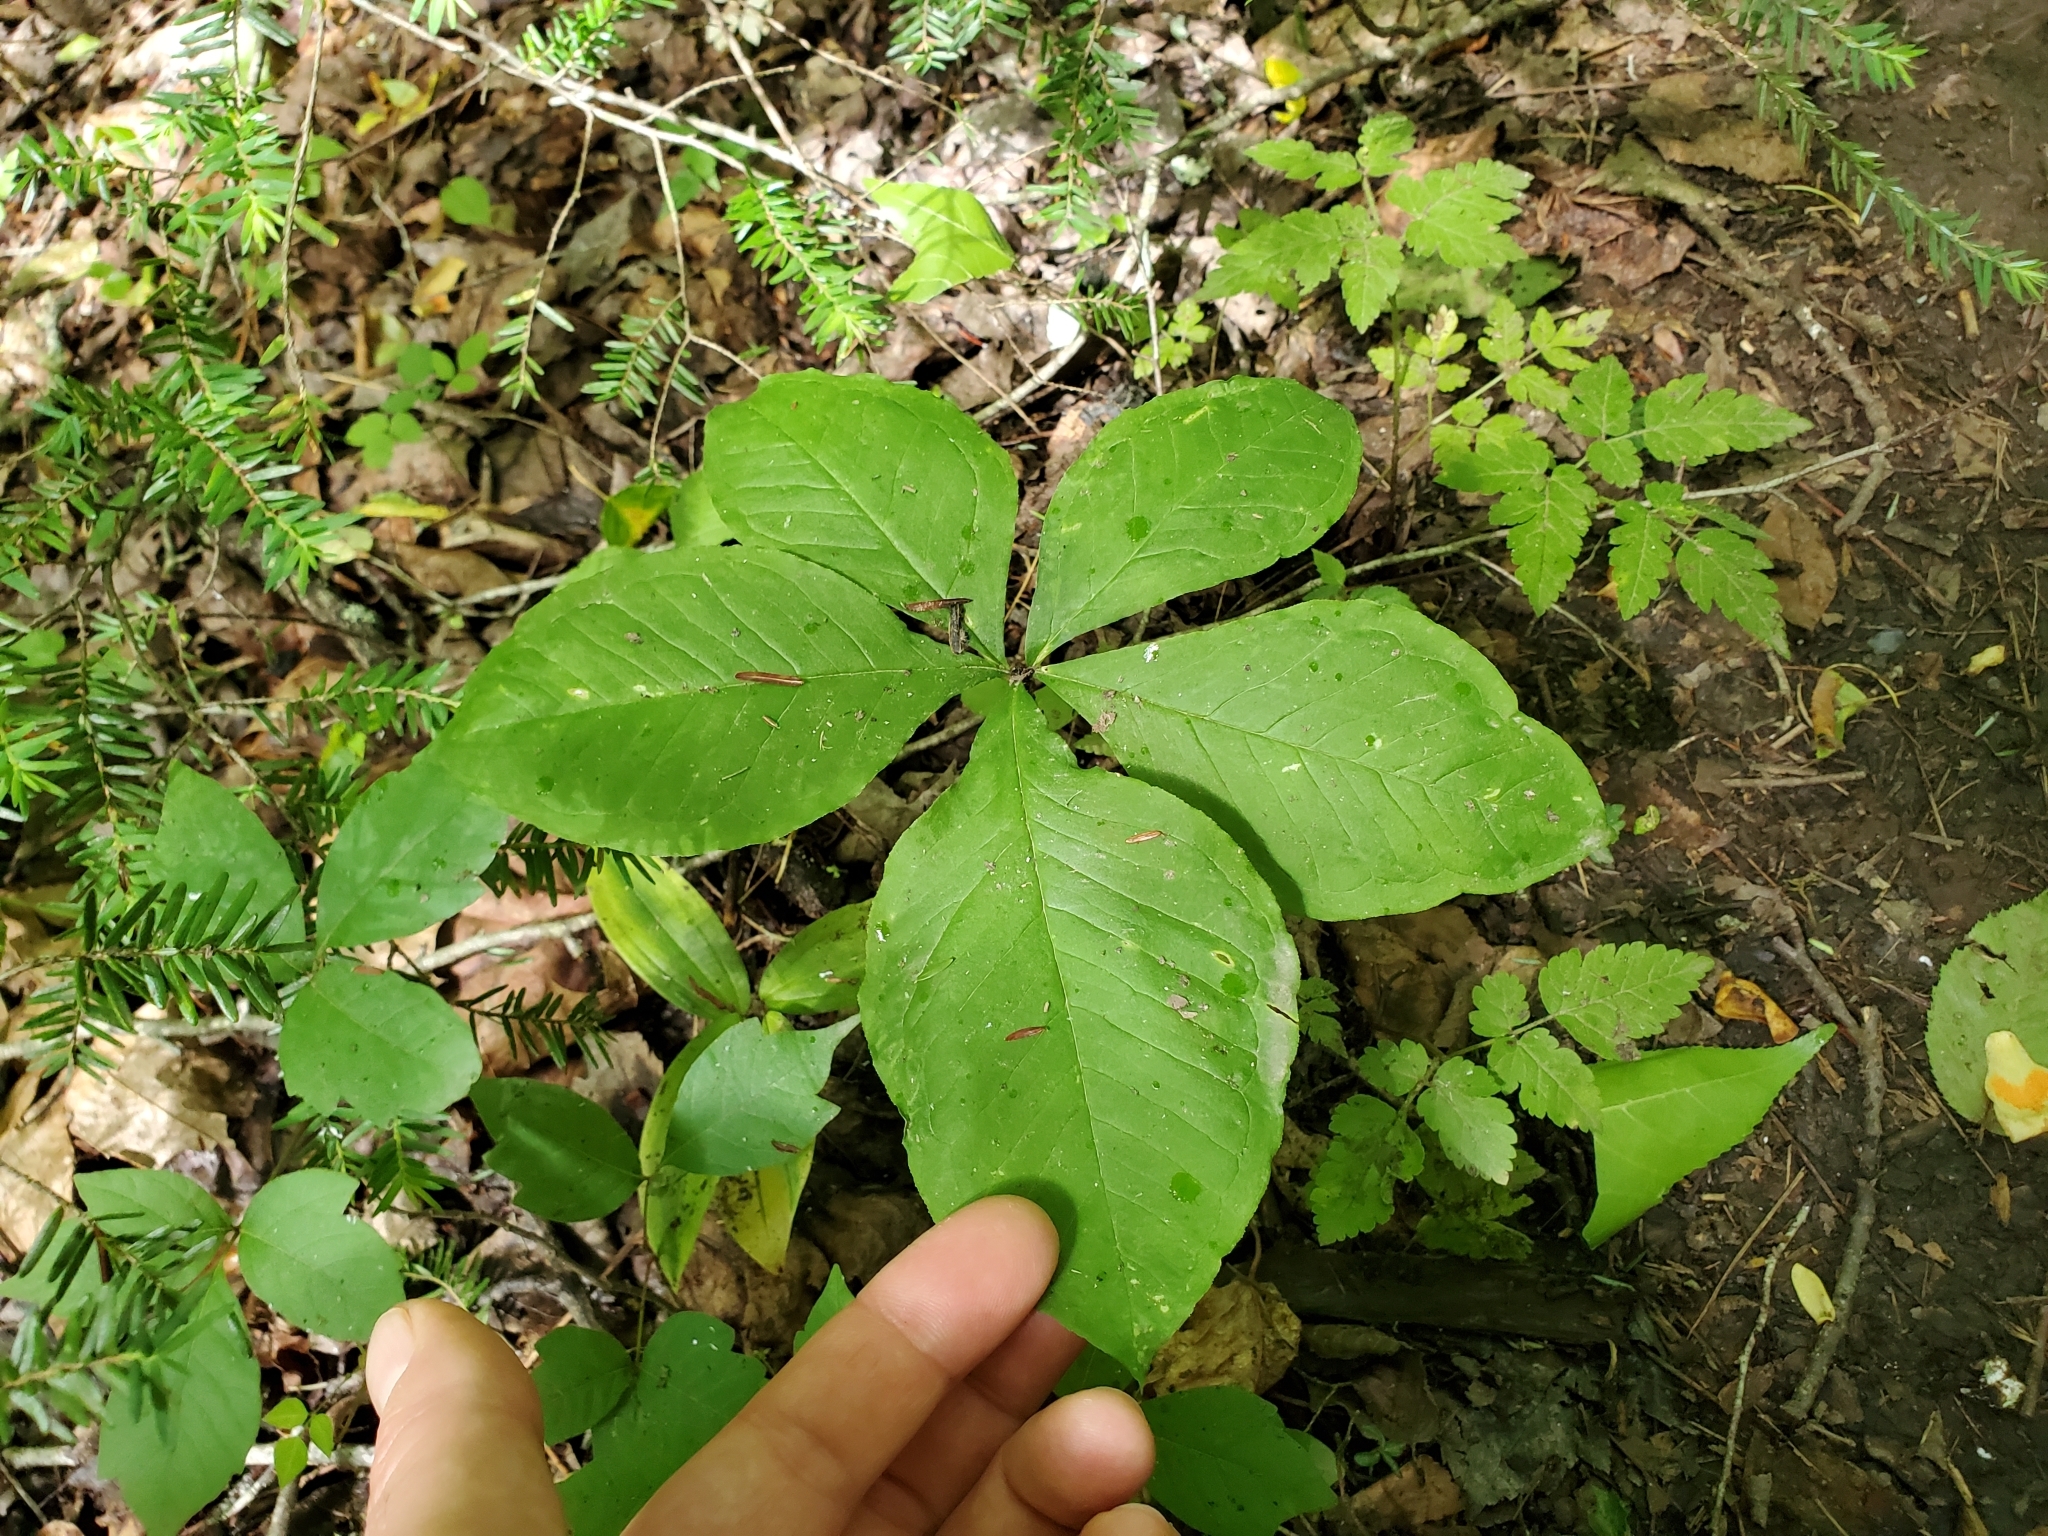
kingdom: Plantae
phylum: Tracheophyta
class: Liliopsida
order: Alismatales
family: Araceae
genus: Arisaema
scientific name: Arisaema quinatum
